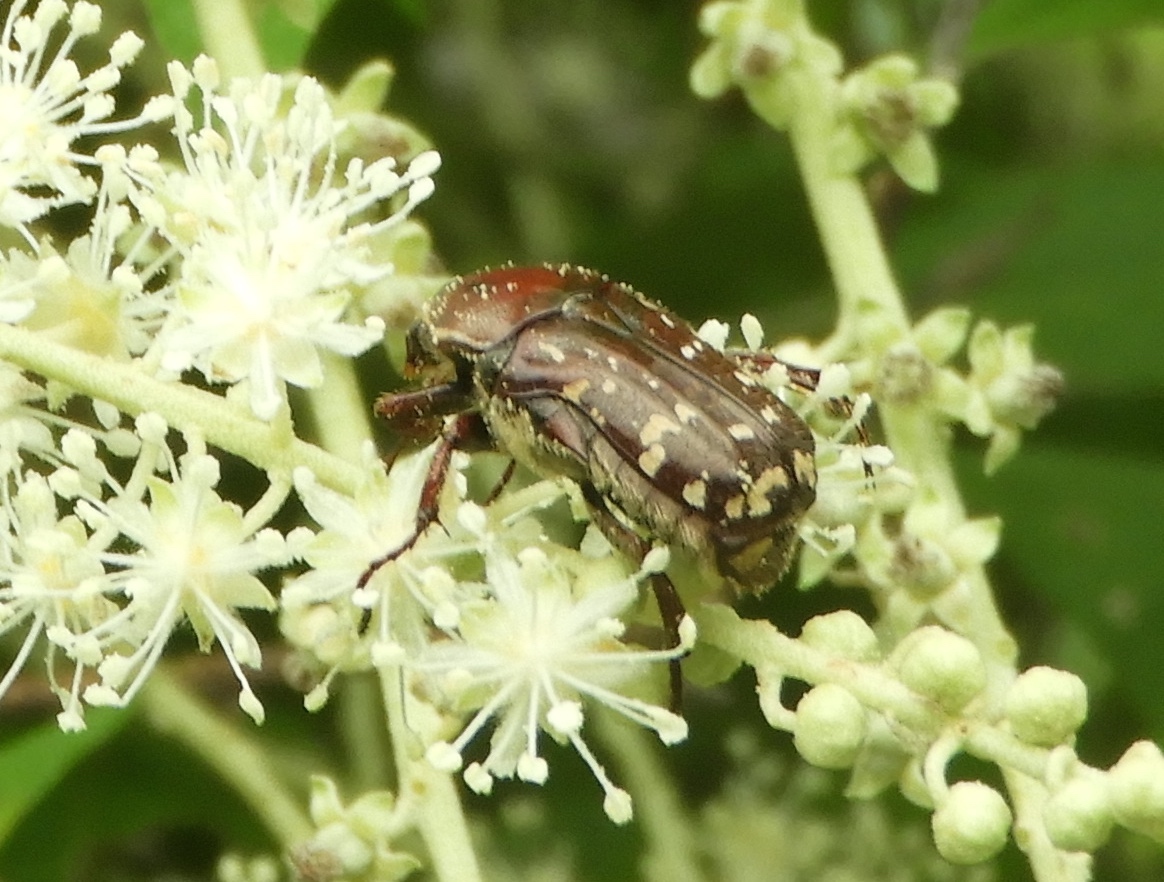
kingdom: Animalia
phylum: Arthropoda
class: Insecta
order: Coleoptera
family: Scarabaeidae
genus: Euphoria
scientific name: Euphoria leucographa
